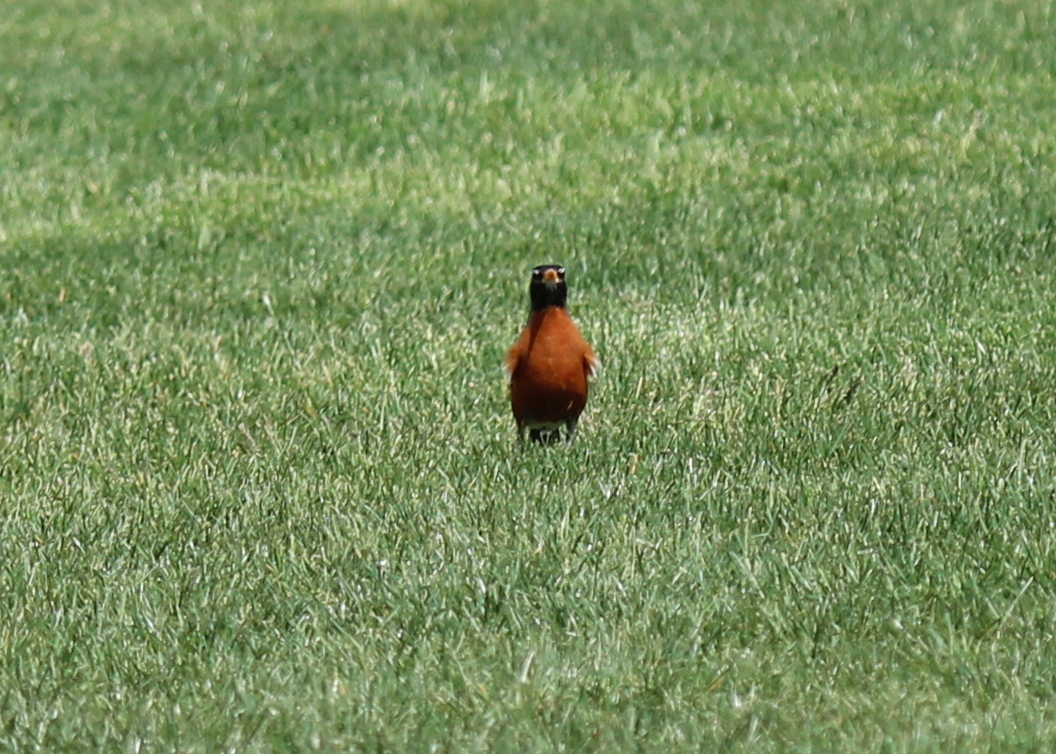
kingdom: Animalia
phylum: Chordata
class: Aves
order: Passeriformes
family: Turdidae
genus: Turdus
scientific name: Turdus migratorius
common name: American robin
